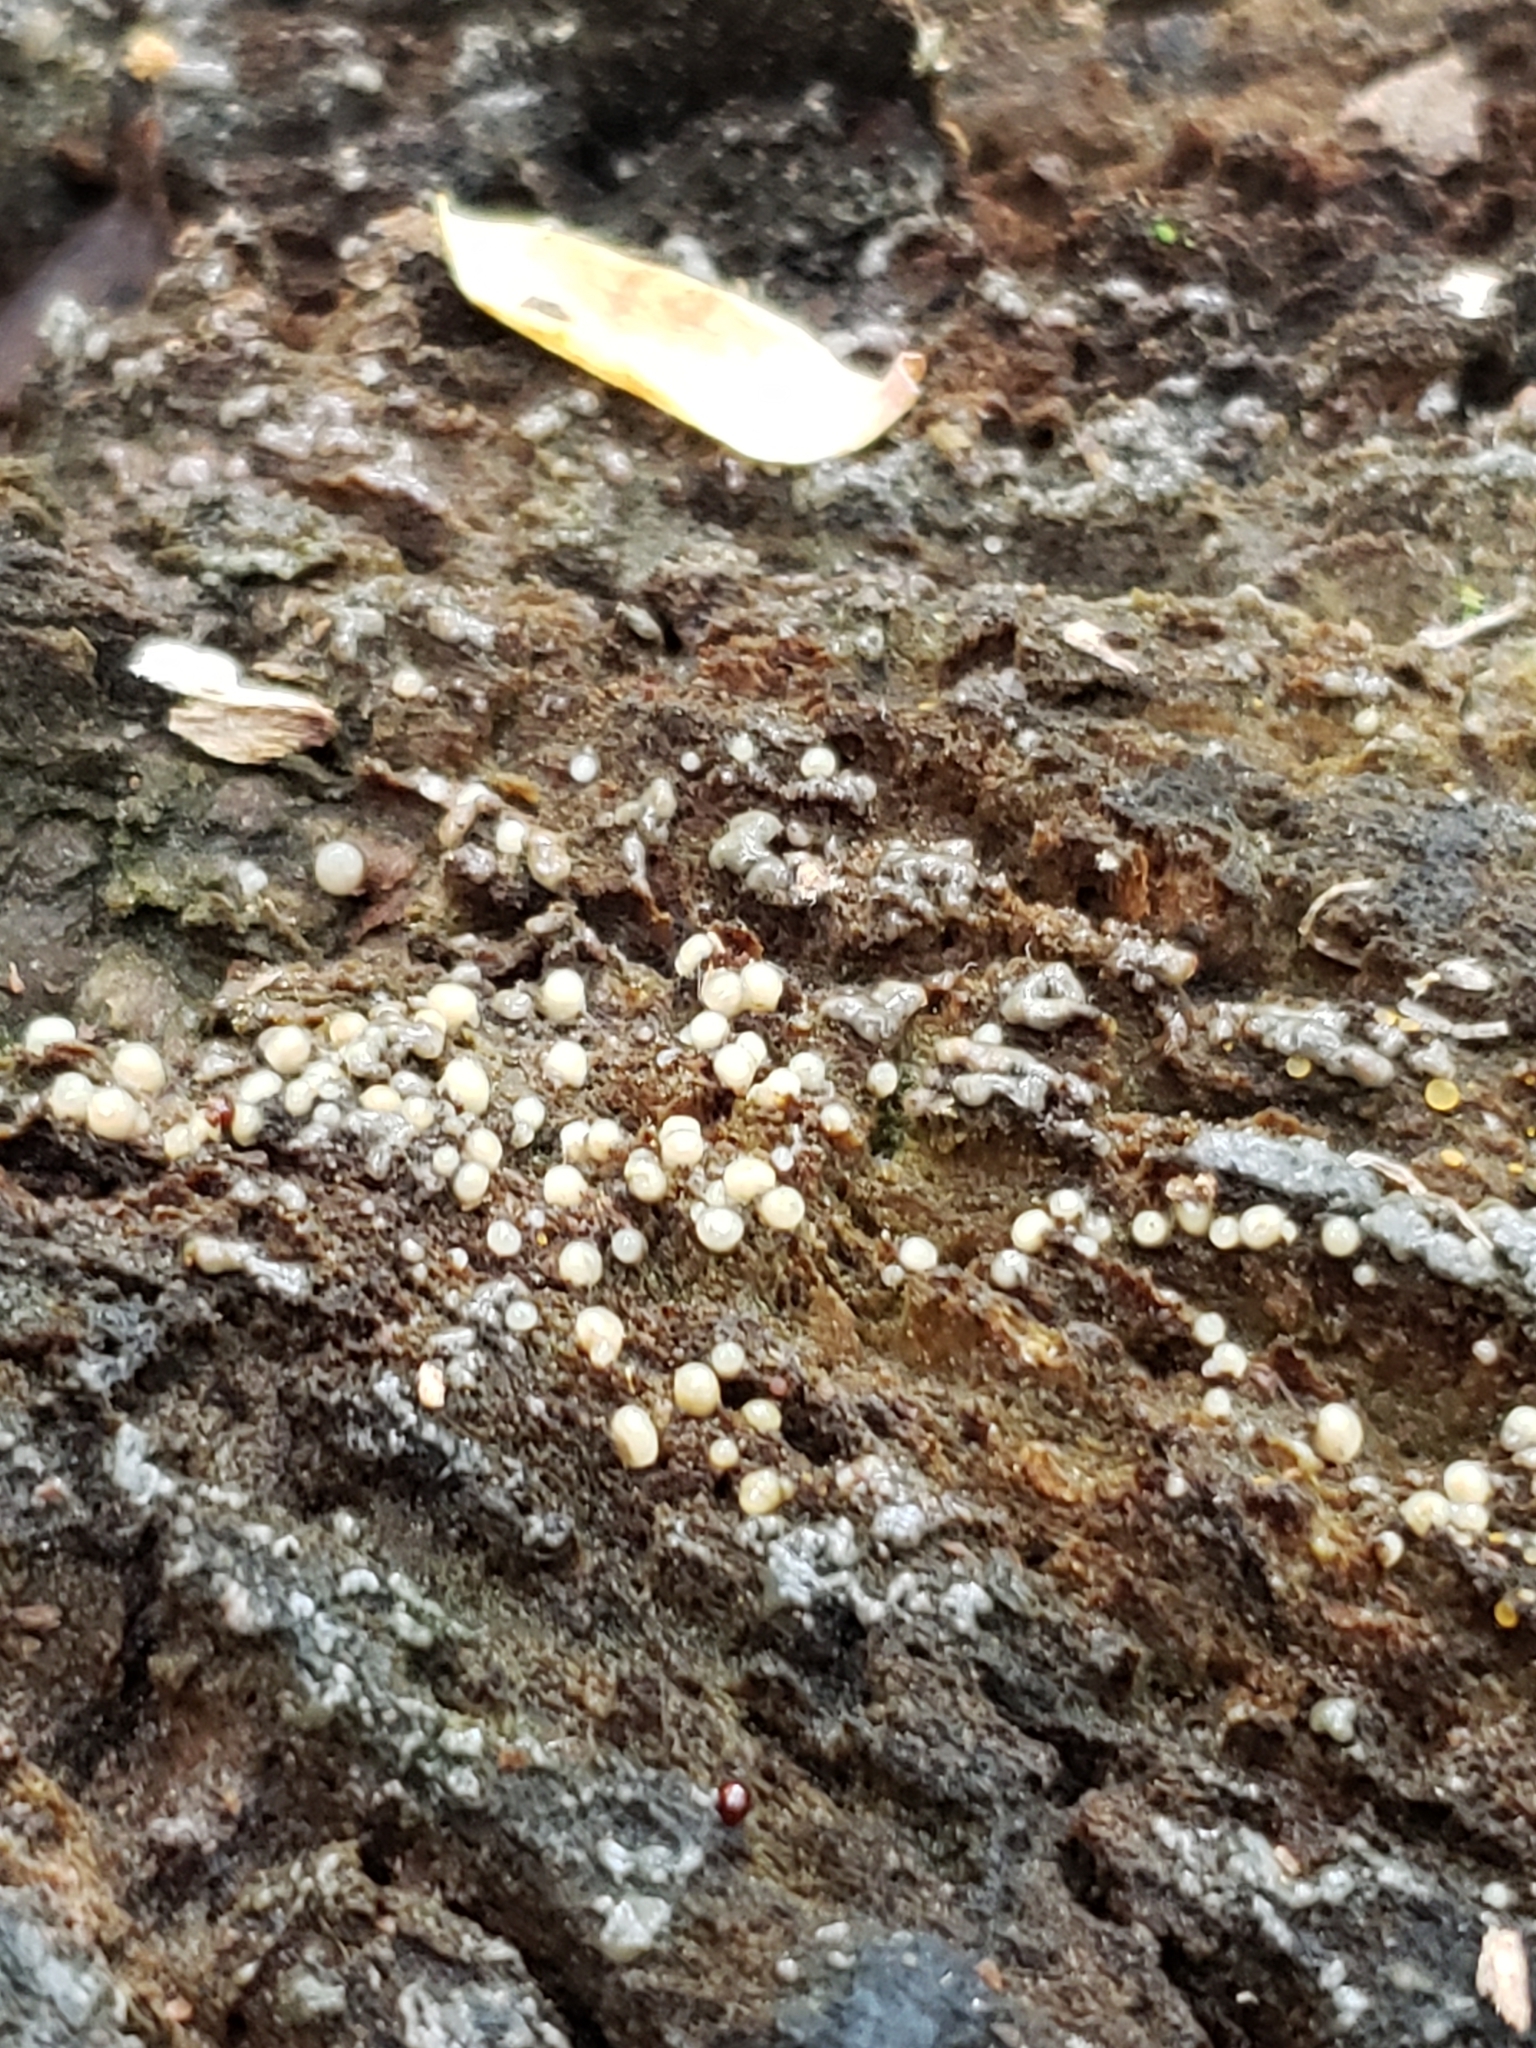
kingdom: Fungi
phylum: Basidiomycota
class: Atractiellomycetes
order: Atractiellales
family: Phleogenaceae
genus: Helicogloea
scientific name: Helicogloea compressa
